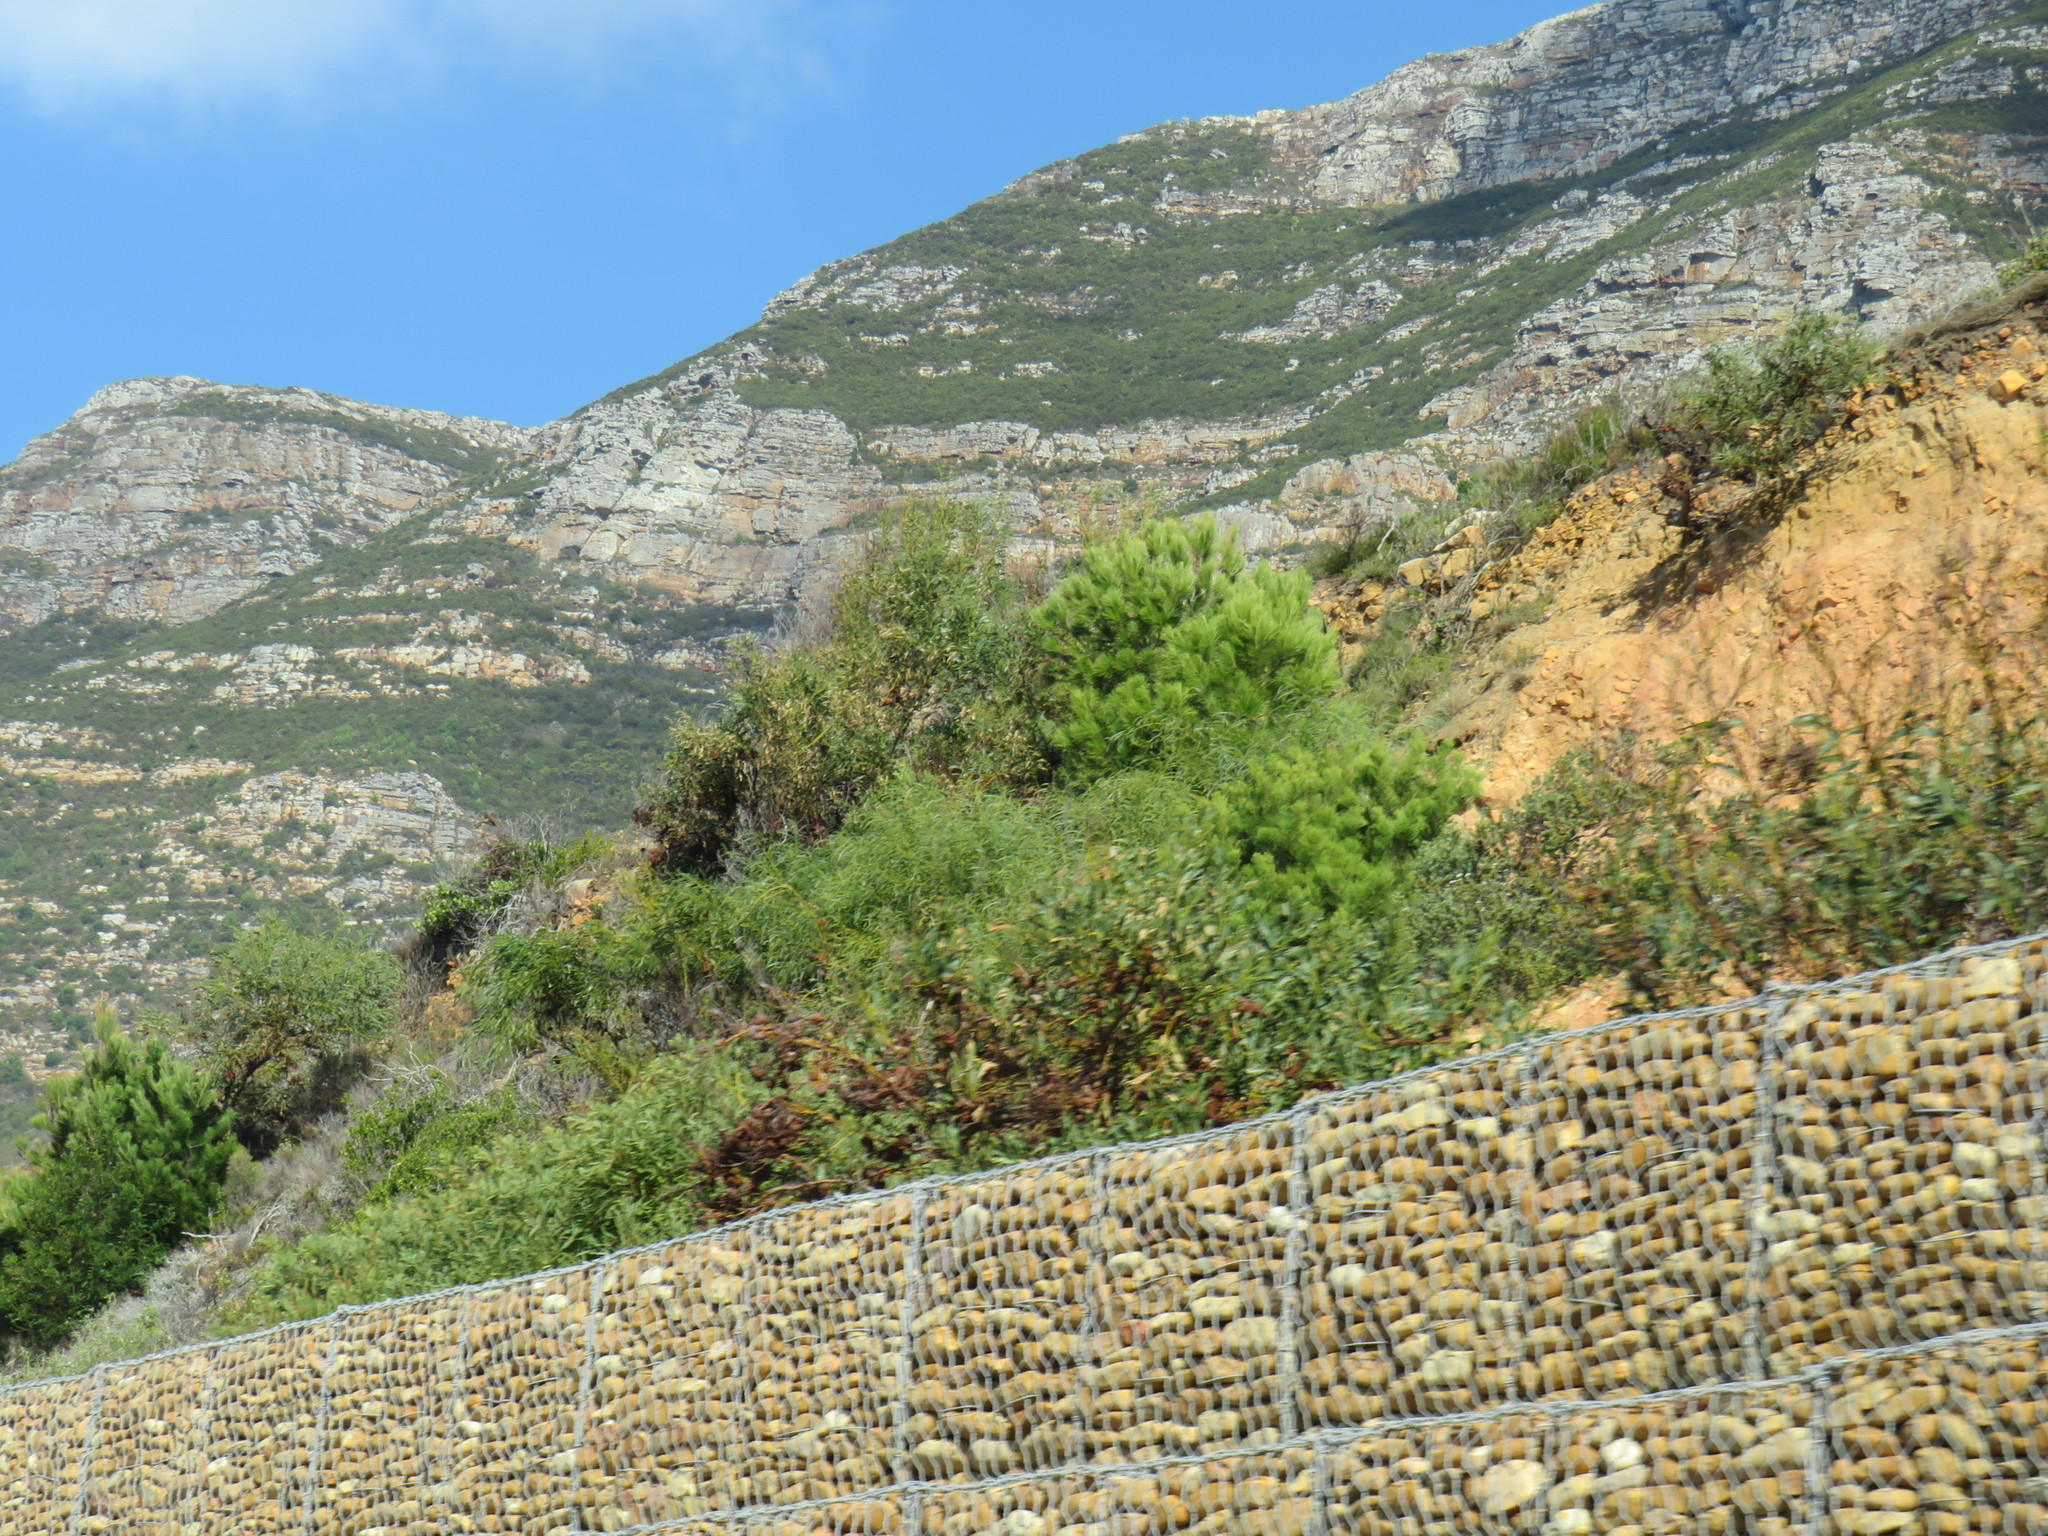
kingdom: Plantae
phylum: Tracheophyta
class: Pinopsida
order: Pinales
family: Pinaceae
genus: Pinus
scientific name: Pinus halepensis
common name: Aleppo pine
